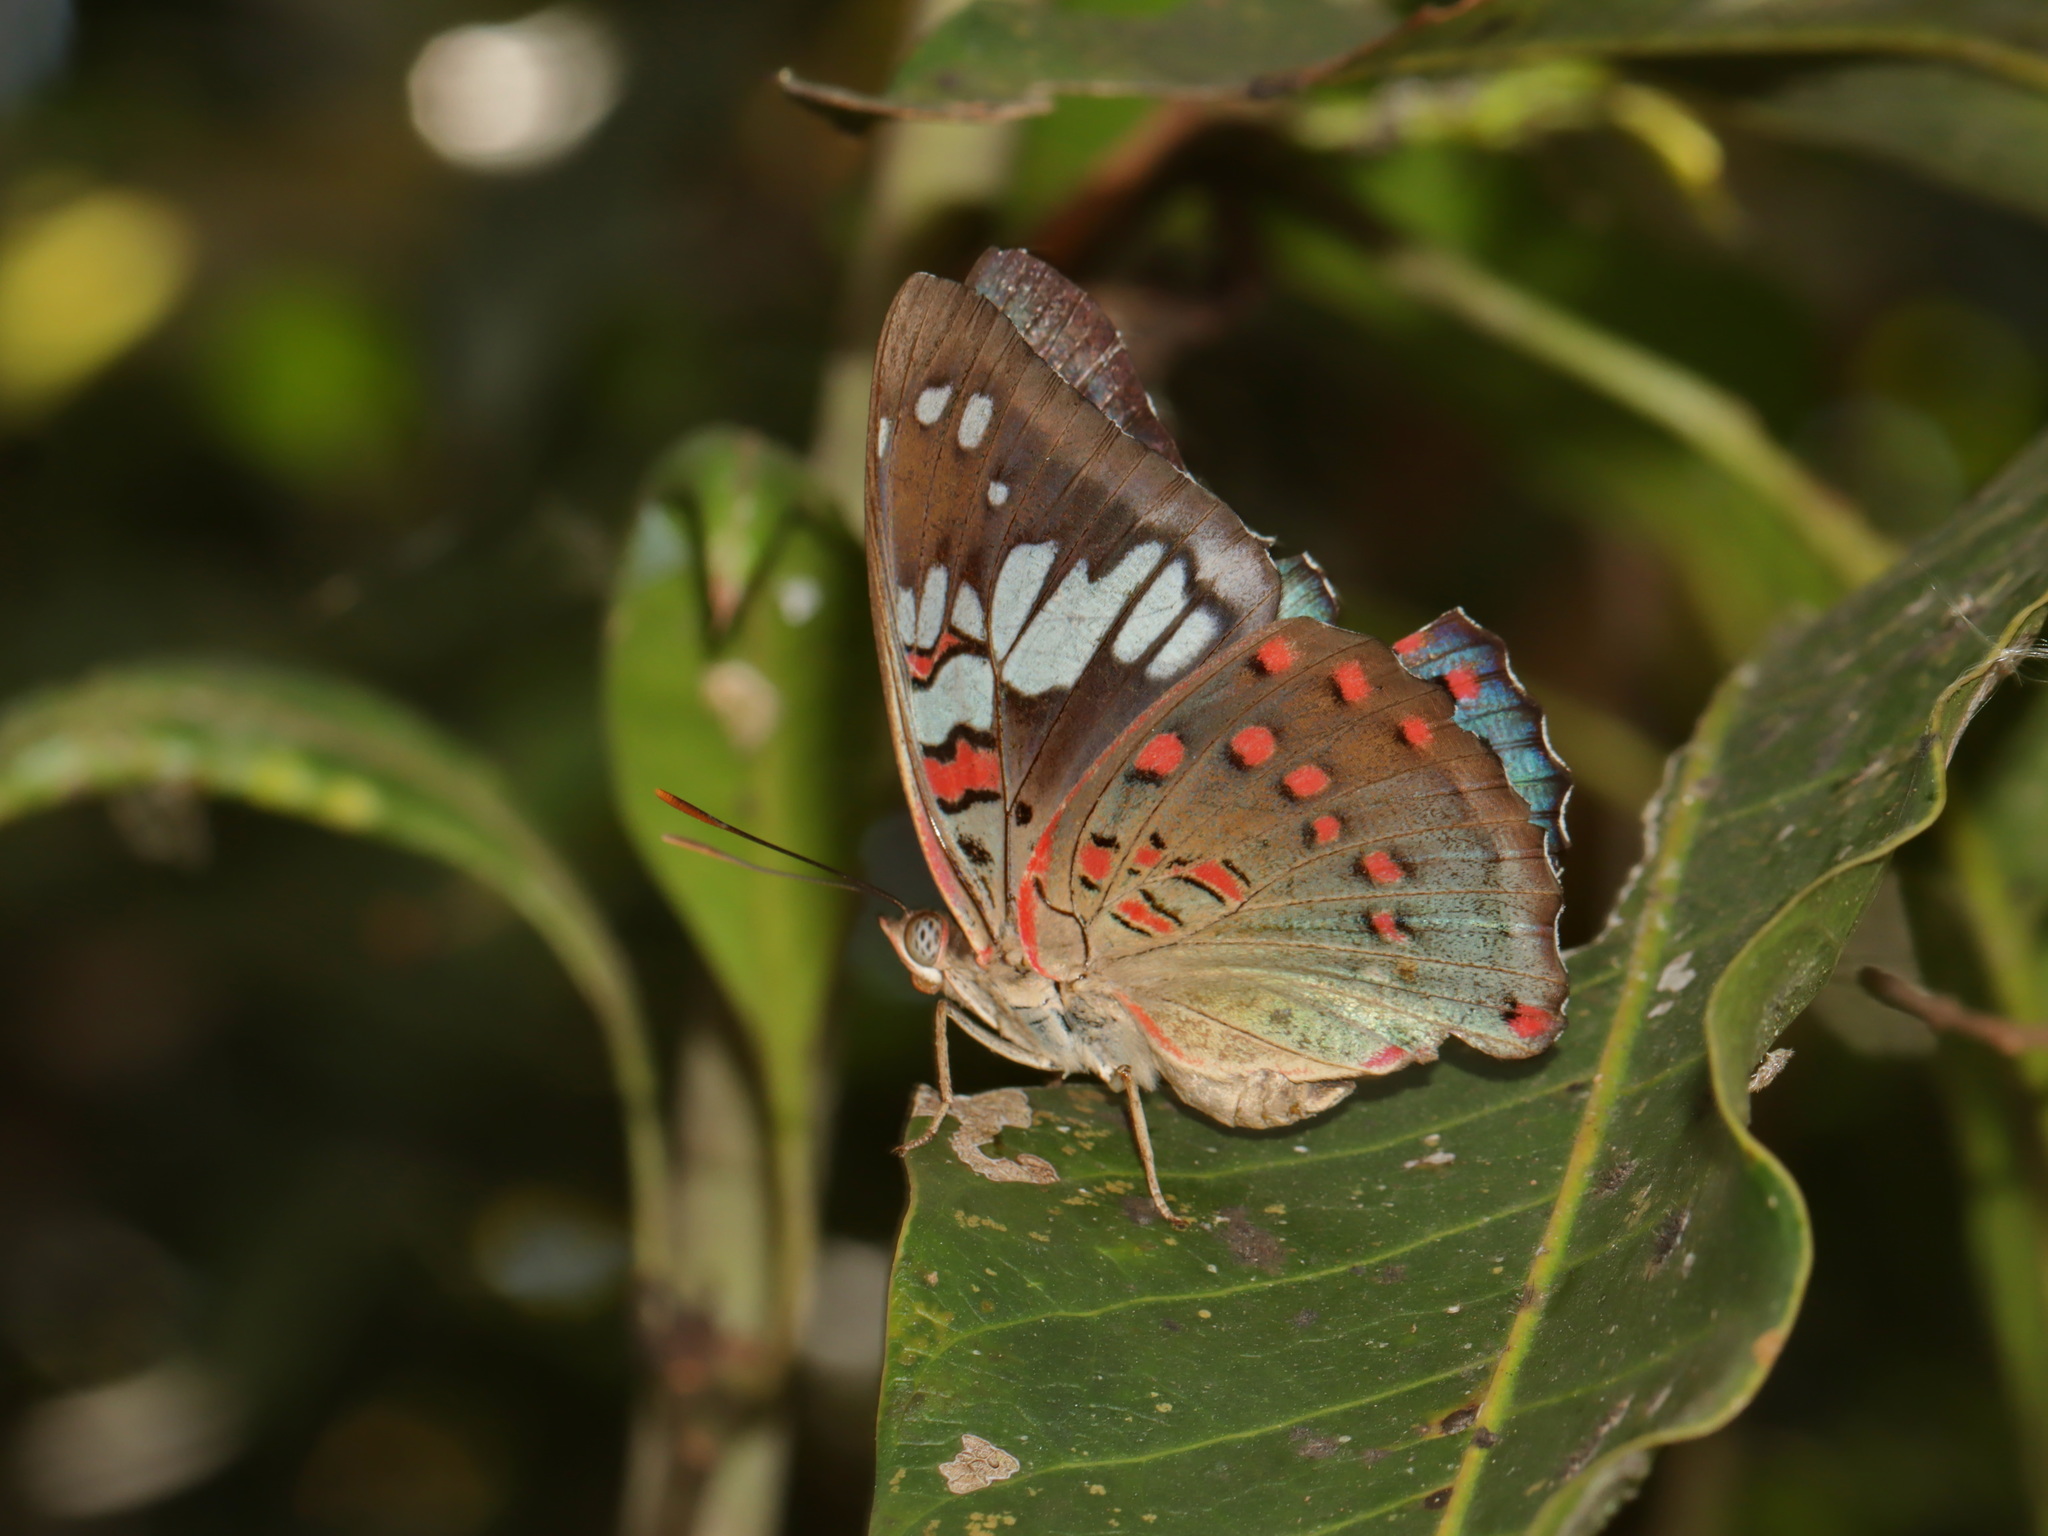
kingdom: Animalia
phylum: Arthropoda
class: Insecta
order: Lepidoptera
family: Nymphalidae
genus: Euthalia
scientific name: Euthalia lubentina
